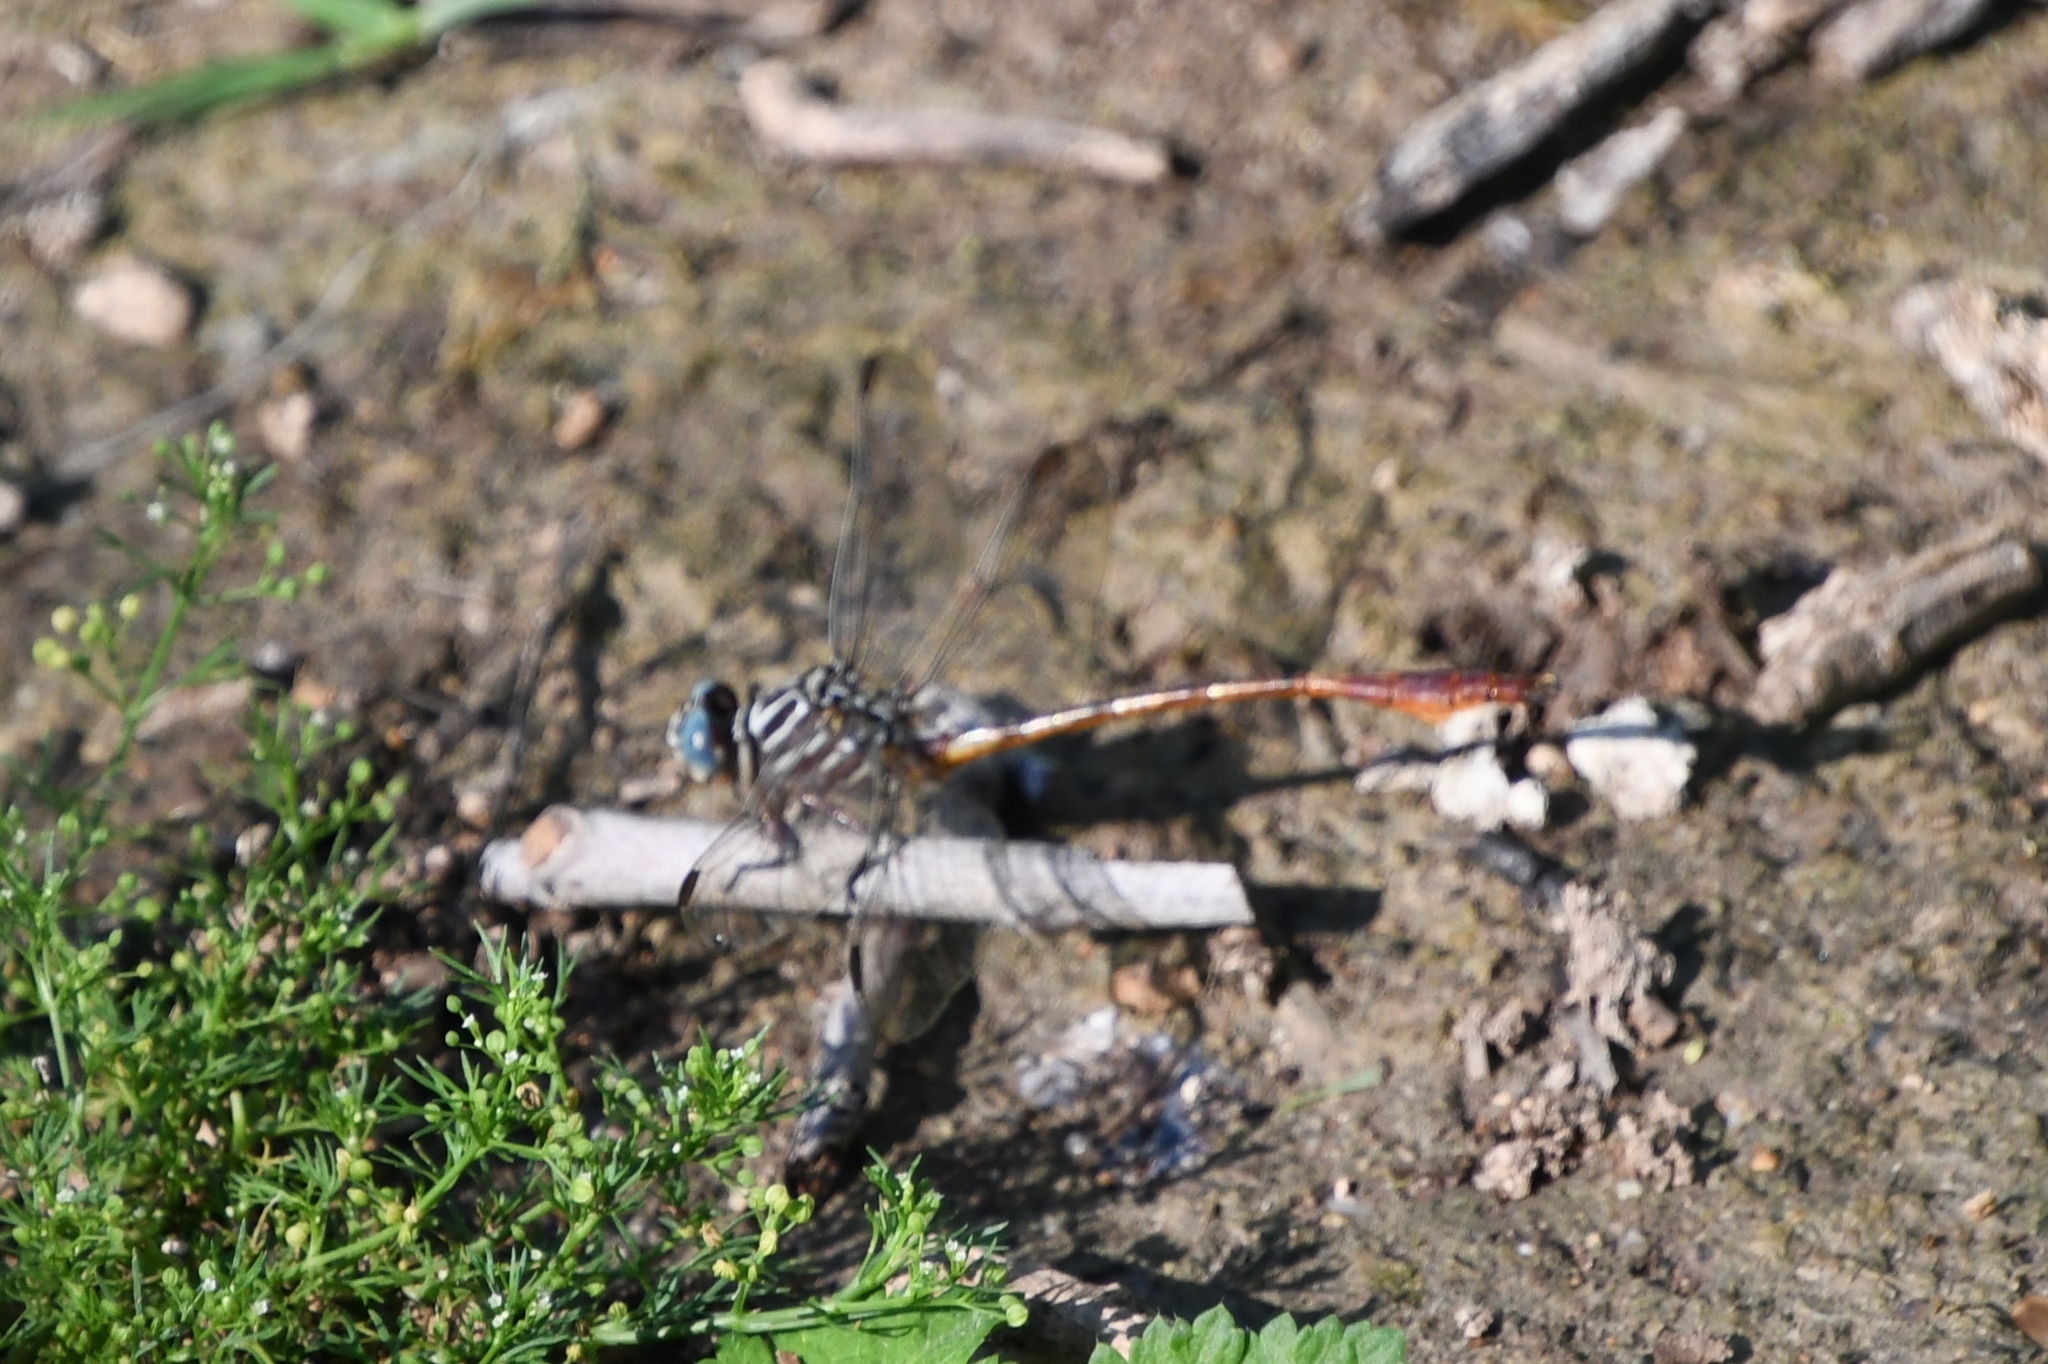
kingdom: Animalia
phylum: Arthropoda
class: Insecta
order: Odonata
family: Gomphidae
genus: Aphylla
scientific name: Aphylla protracta
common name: Narrow-striped forceptail
